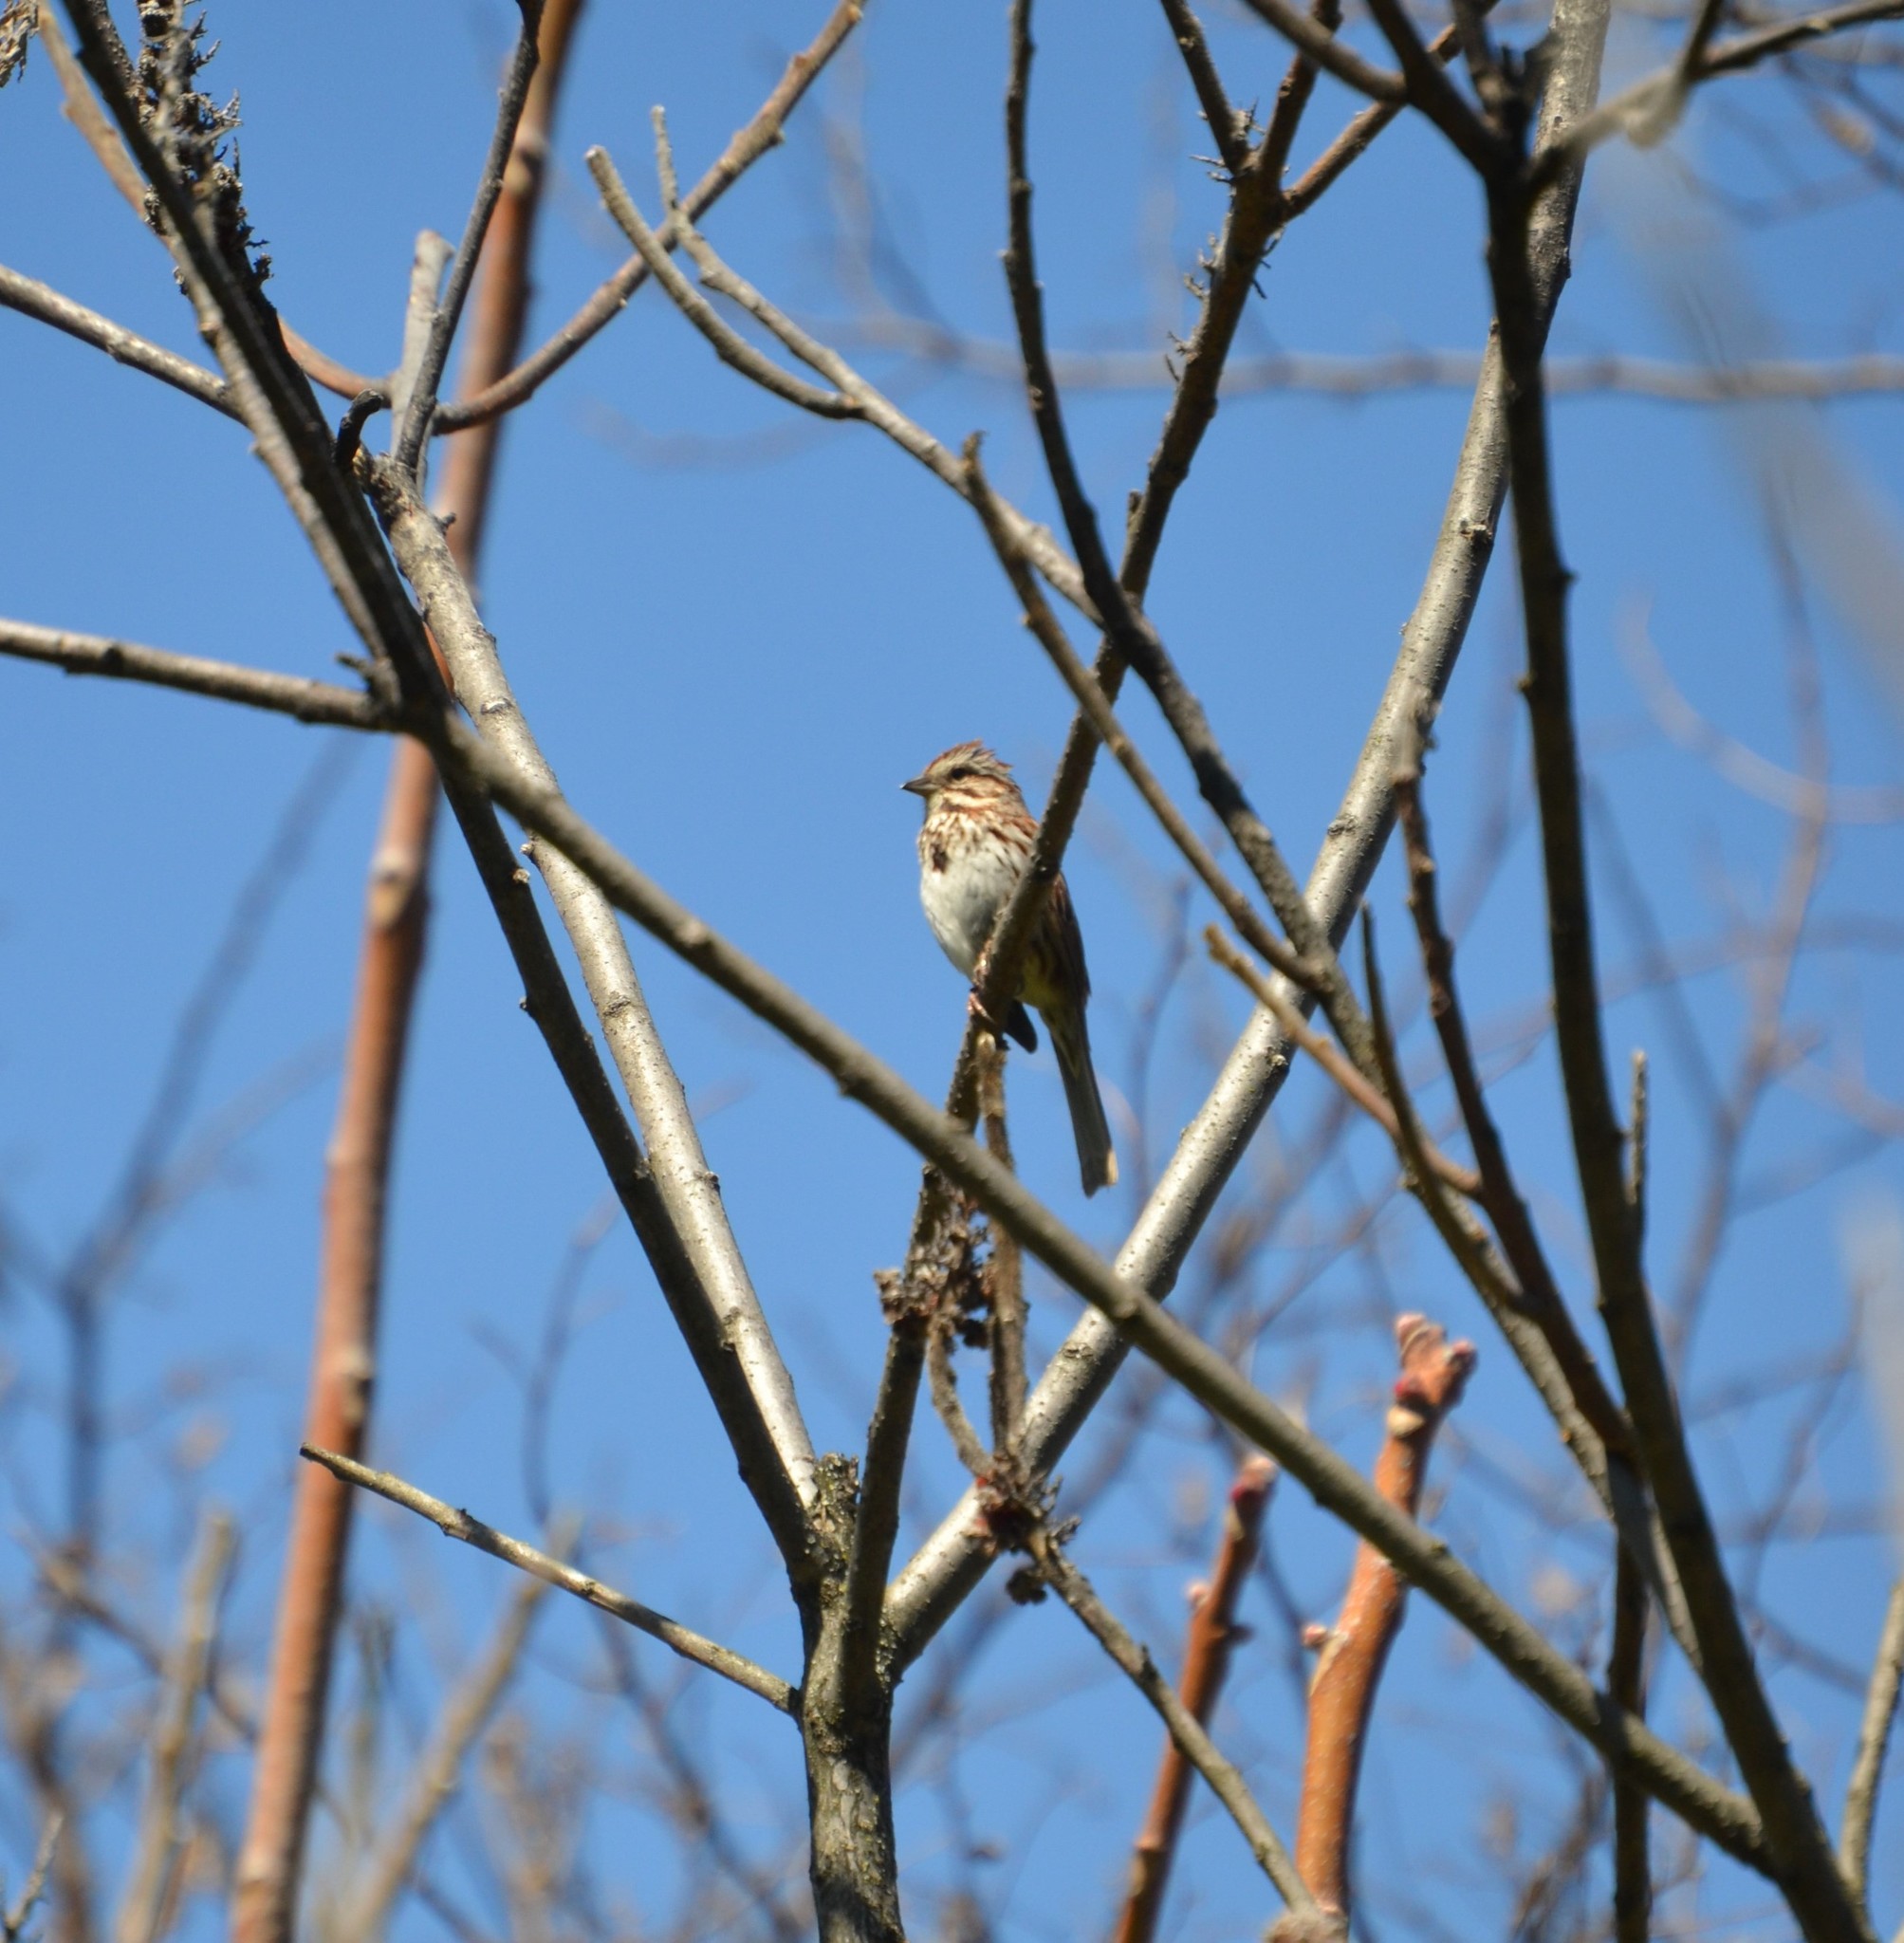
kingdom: Animalia
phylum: Chordata
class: Aves
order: Passeriformes
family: Passerellidae
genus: Melospiza
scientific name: Melospiza melodia
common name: Song sparrow
